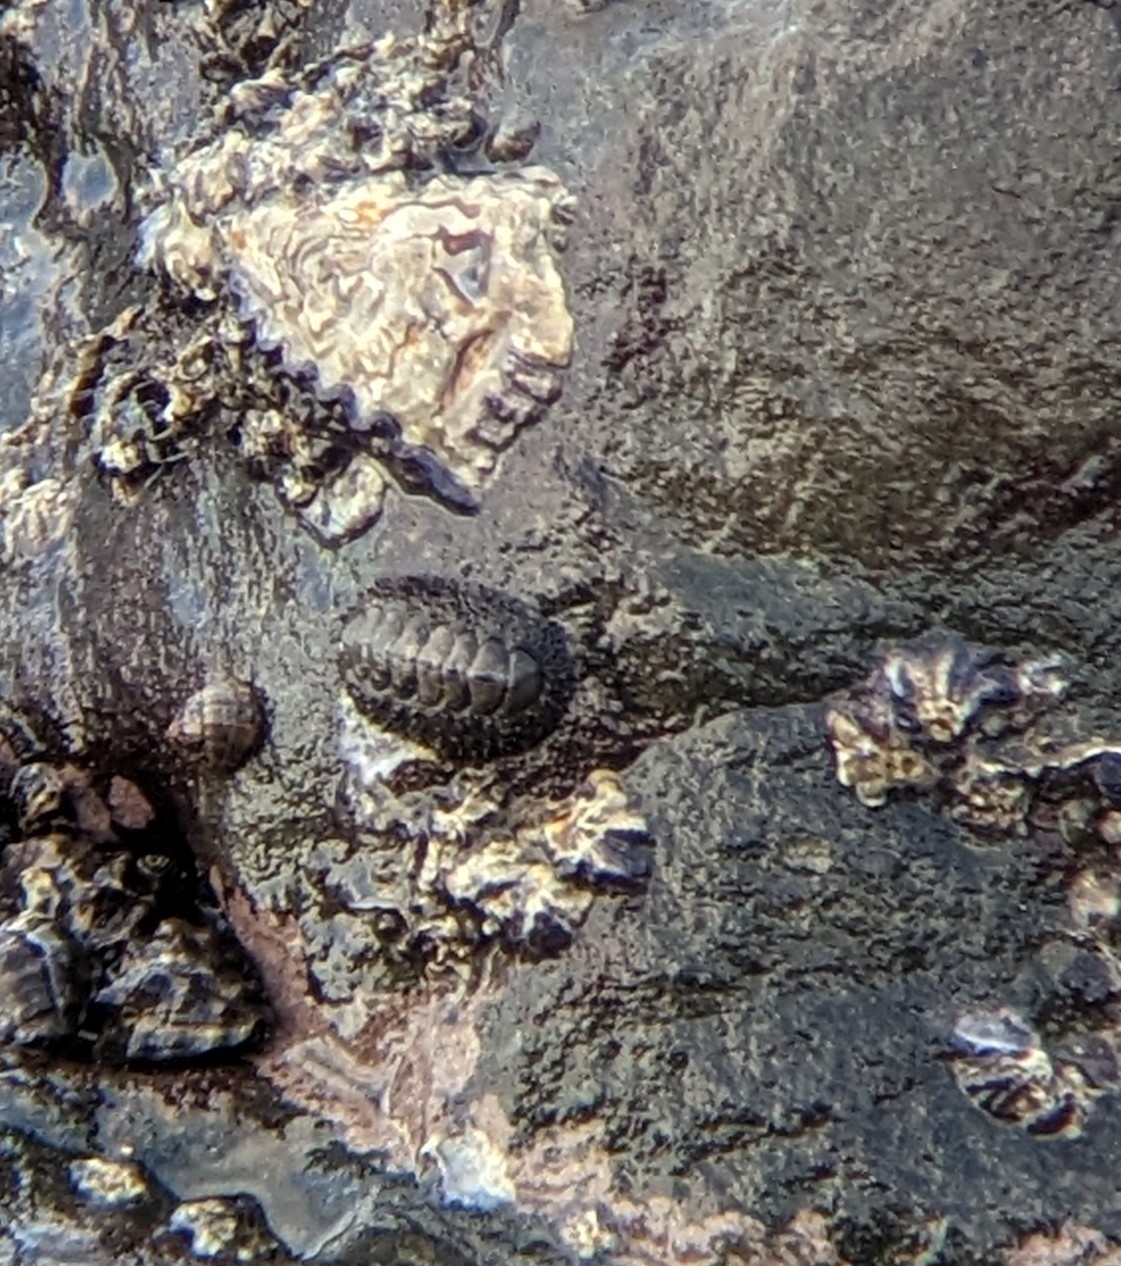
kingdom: Animalia
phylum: Mollusca
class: Polyplacophora
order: Chitonida
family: Chitonidae
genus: Acanthopleura
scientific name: Acanthopleura gemmata
